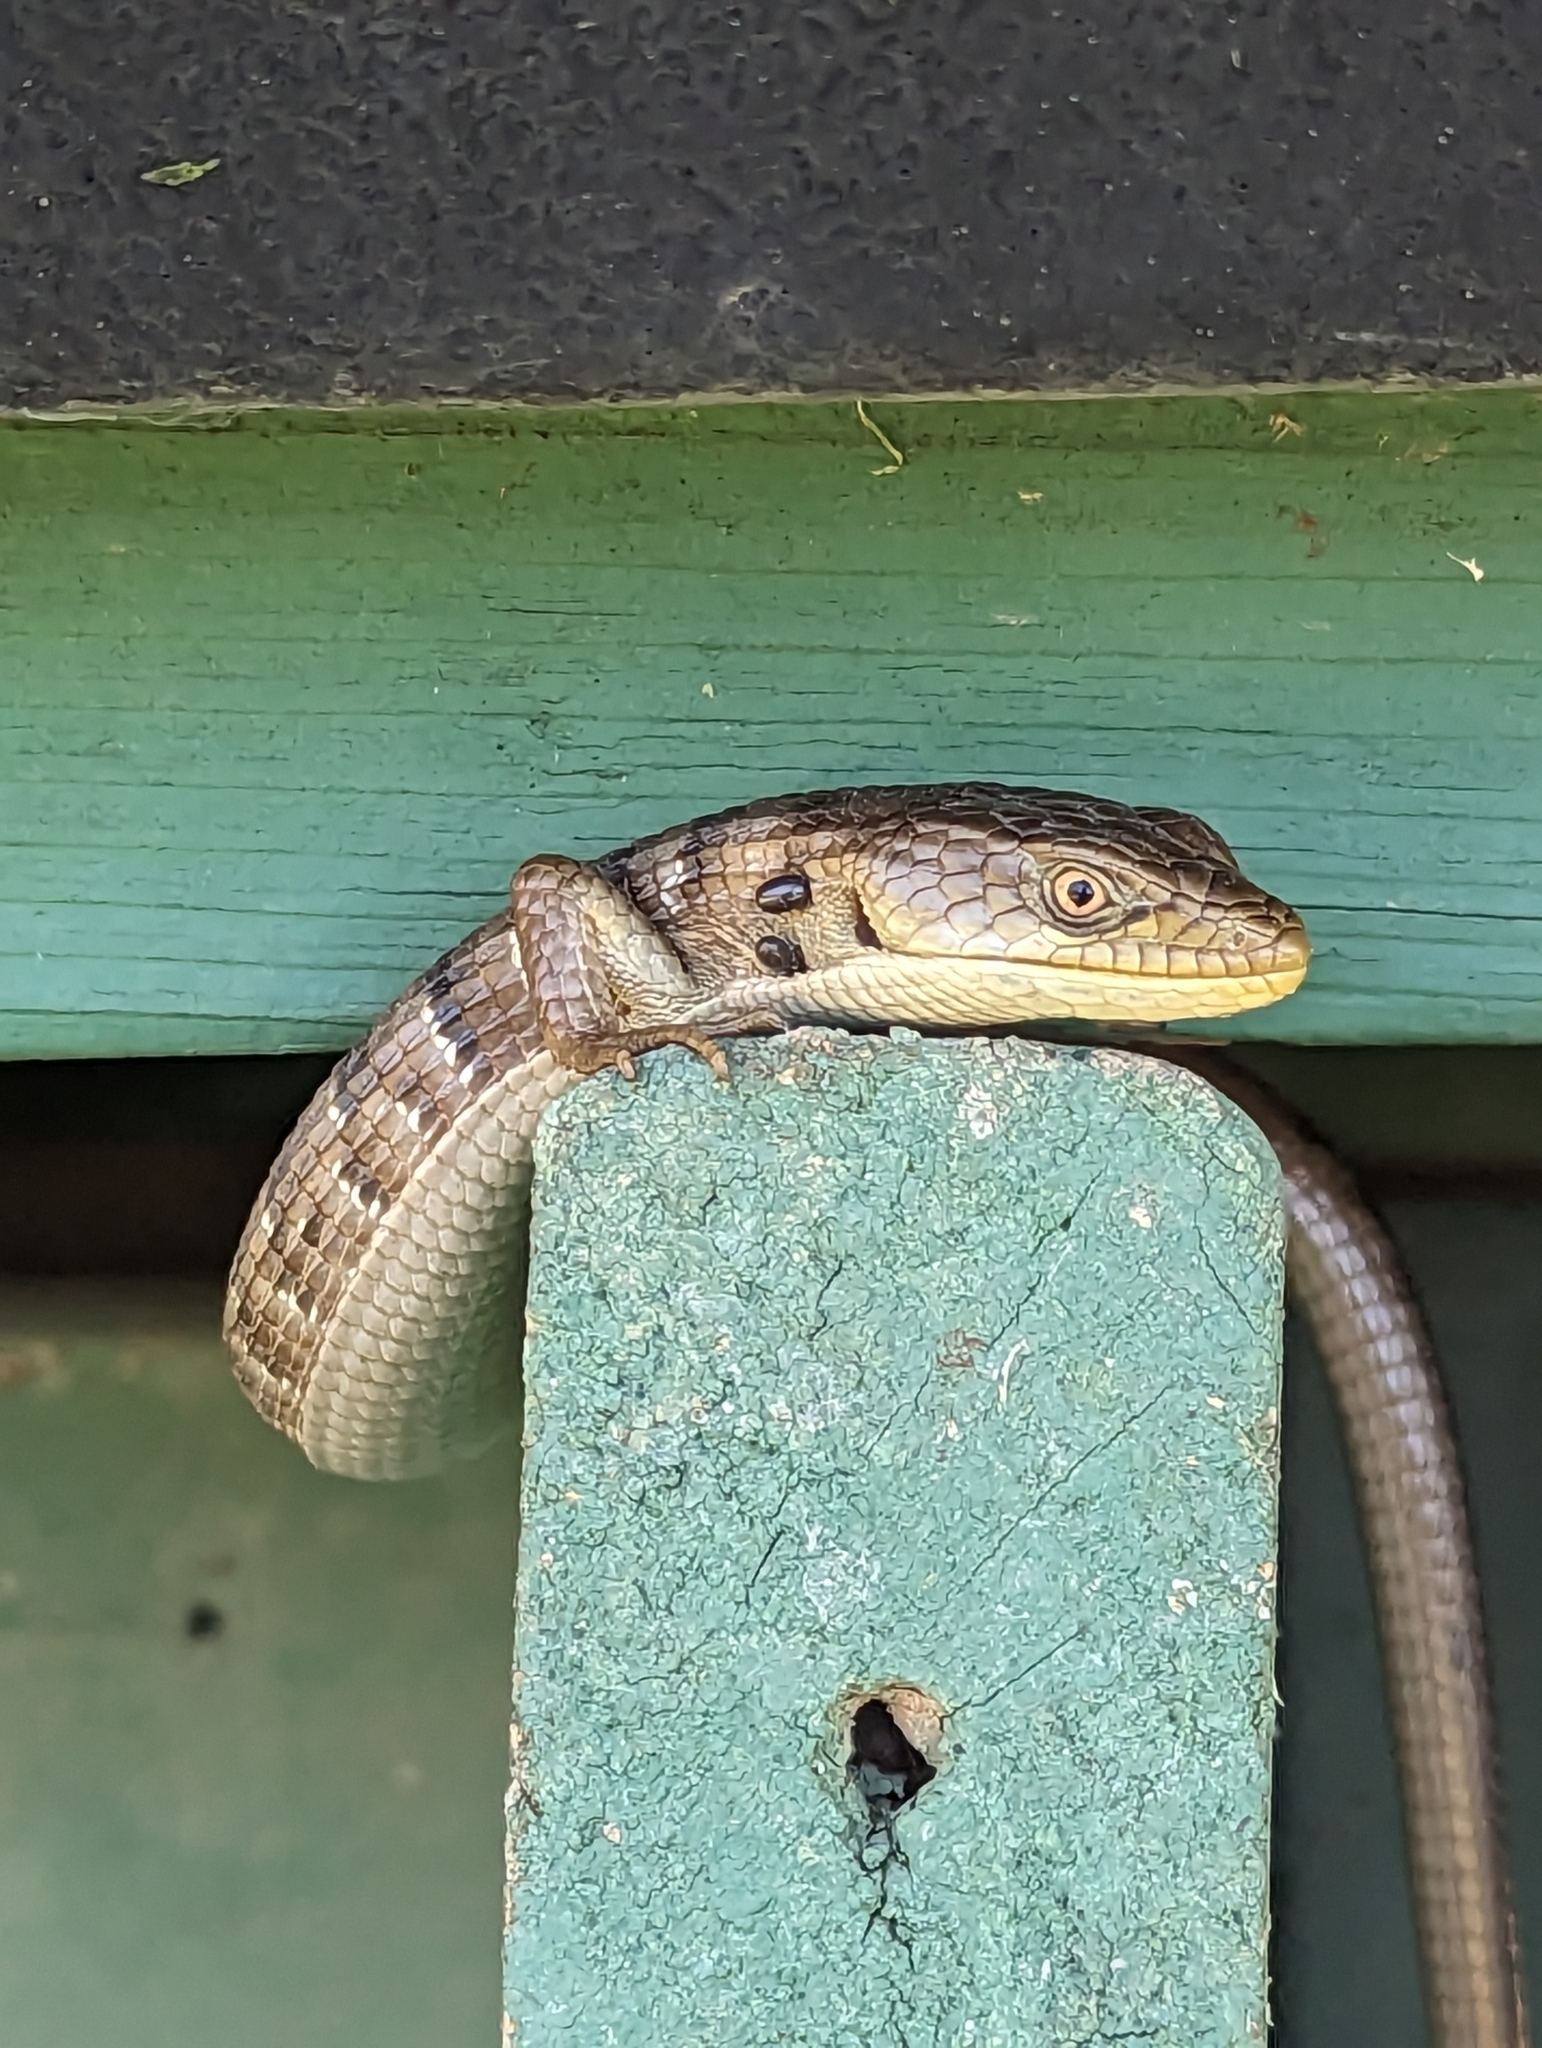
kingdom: Animalia
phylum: Chordata
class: Squamata
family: Anguidae
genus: Elgaria
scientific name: Elgaria multicarinata
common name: Southern alligator lizard
